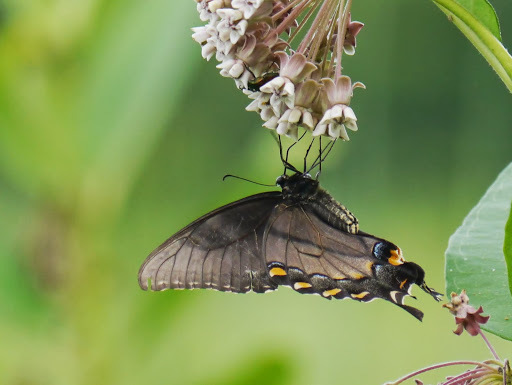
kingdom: Animalia
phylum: Arthropoda
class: Insecta
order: Lepidoptera
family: Papilionidae
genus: Papilio
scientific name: Papilio glaucus
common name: Tiger swallowtail
